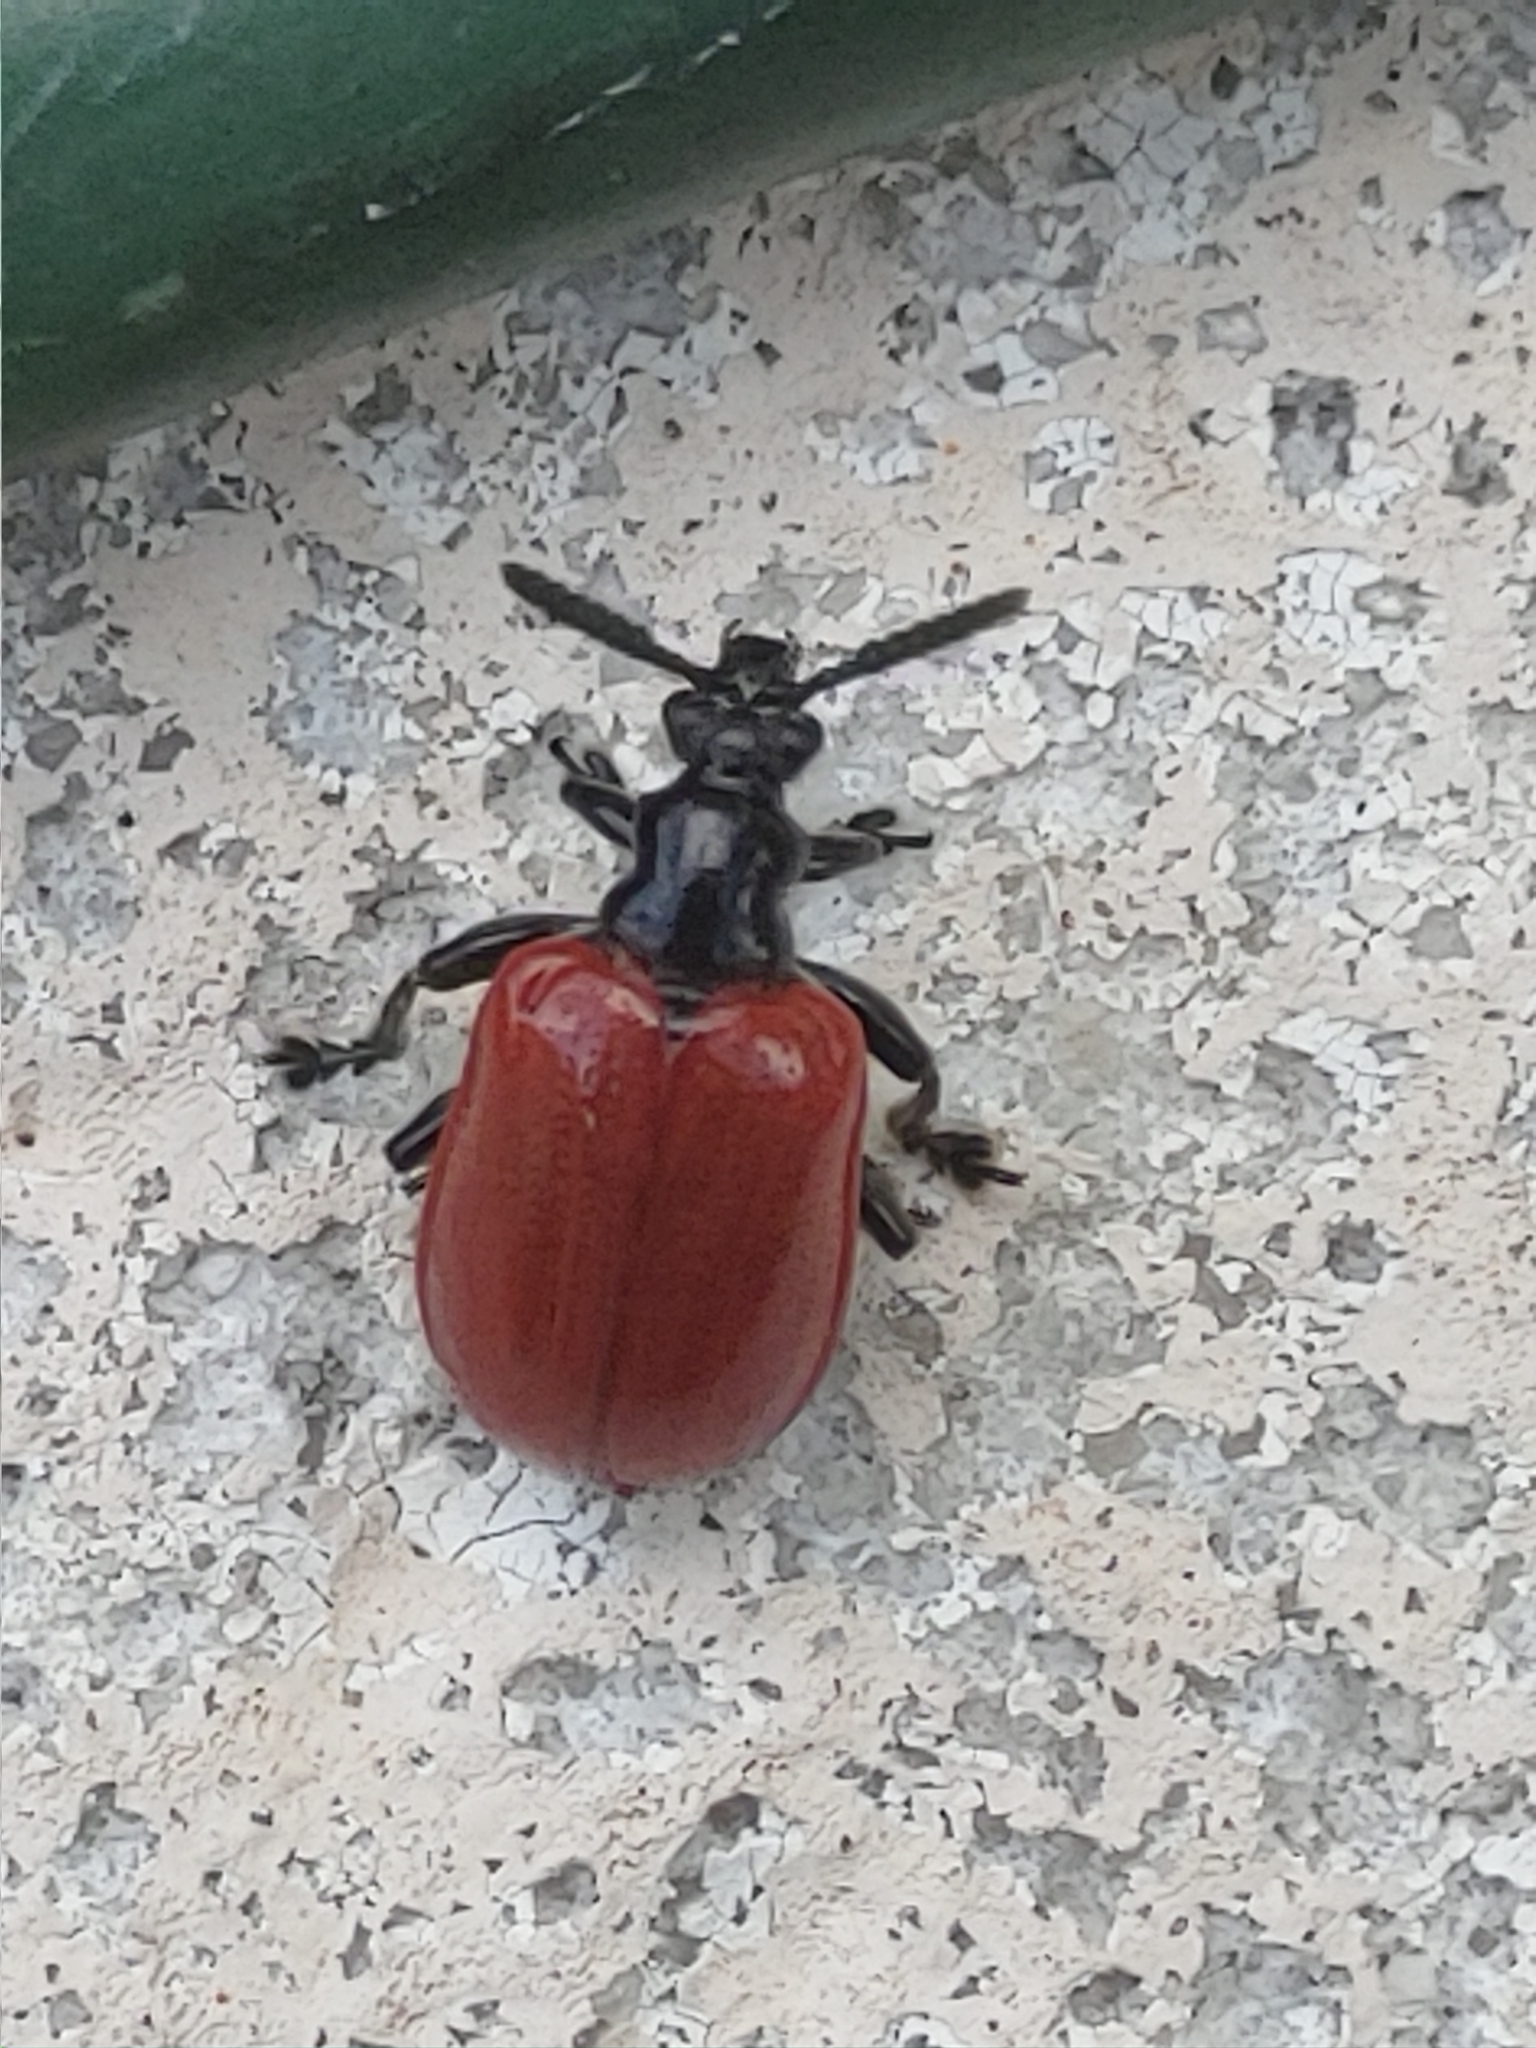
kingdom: Animalia
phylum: Arthropoda
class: Insecta
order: Coleoptera
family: Chrysomelidae
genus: Lilioceris
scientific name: Lilioceris cheni
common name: Leaf beetle
